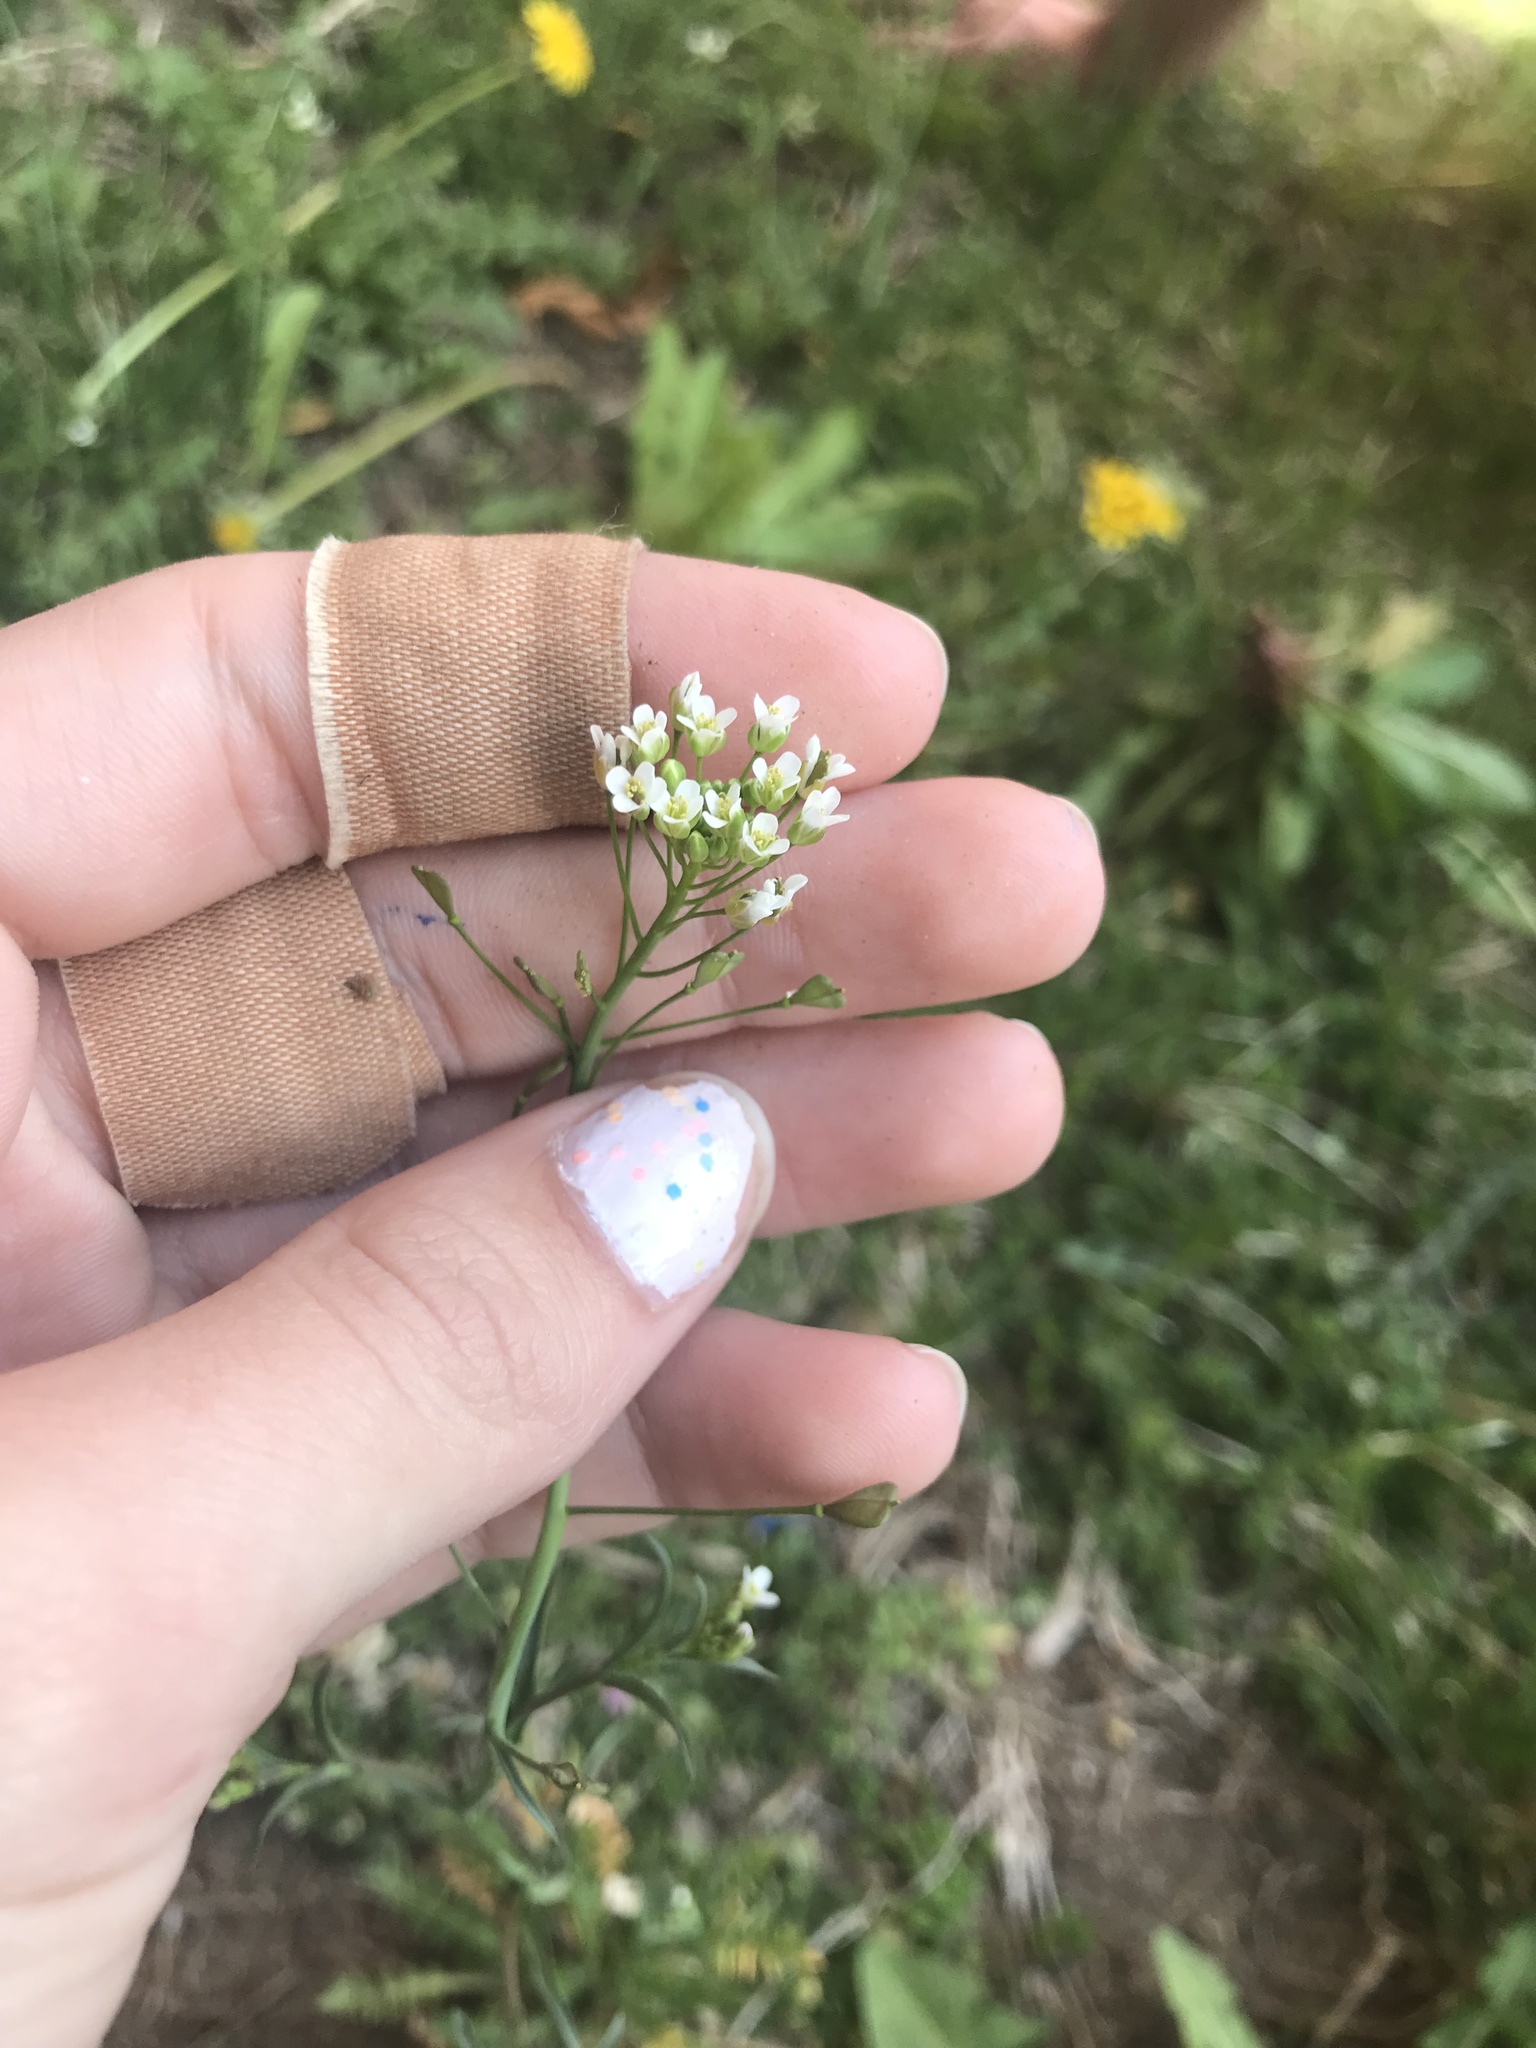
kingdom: Plantae
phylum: Tracheophyta
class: Magnoliopsida
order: Brassicales
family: Brassicaceae
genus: Capsella
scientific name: Capsella bursa-pastoris
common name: Shepherd's purse
